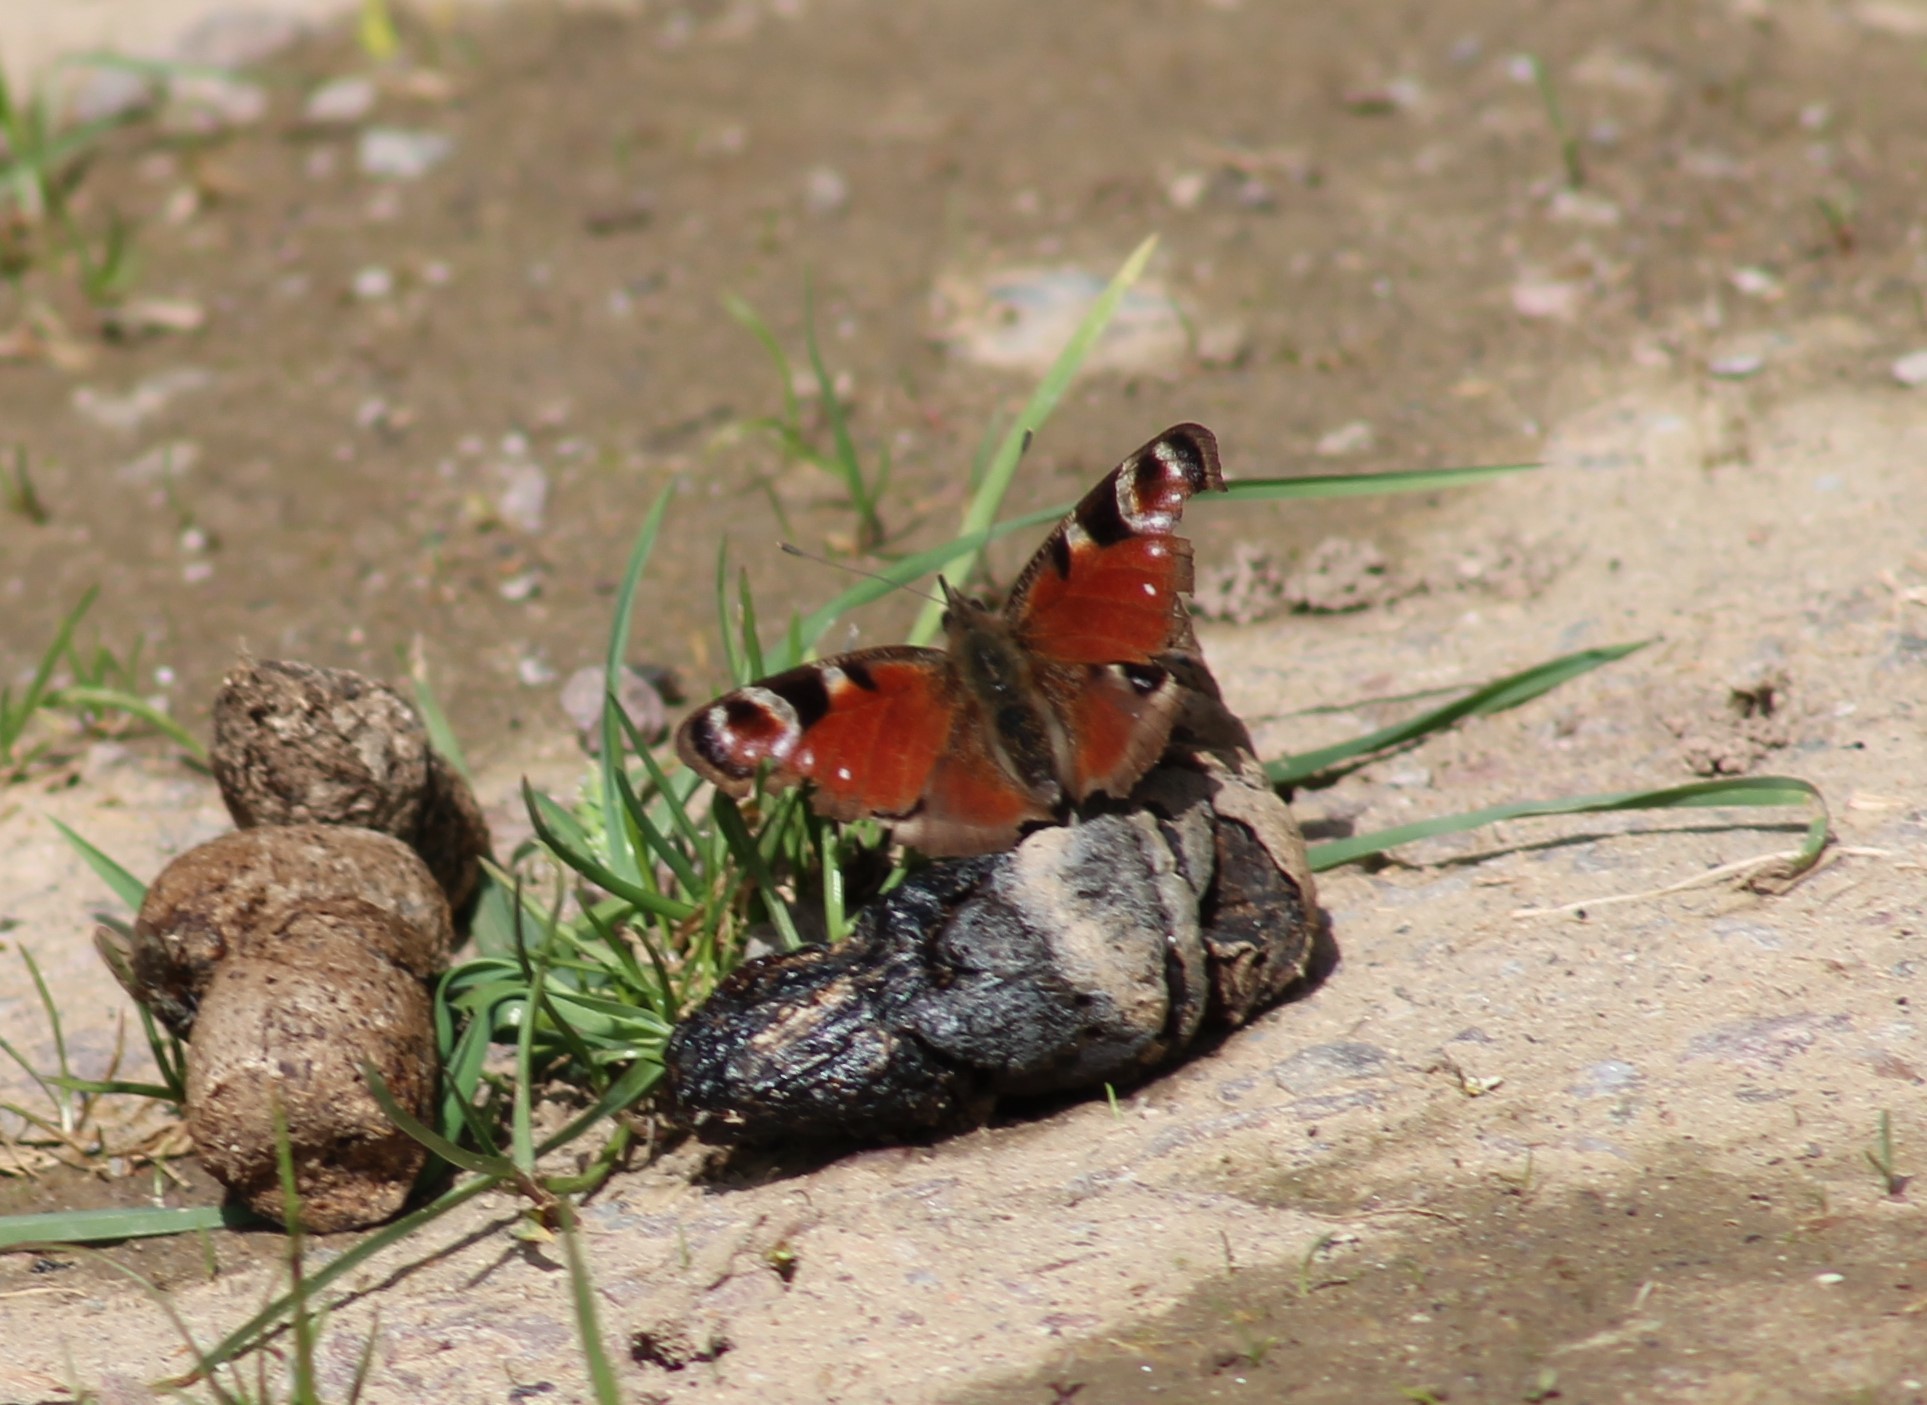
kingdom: Animalia
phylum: Arthropoda
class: Insecta
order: Lepidoptera
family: Nymphalidae
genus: Aglais
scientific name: Aglais io
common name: Peacock
